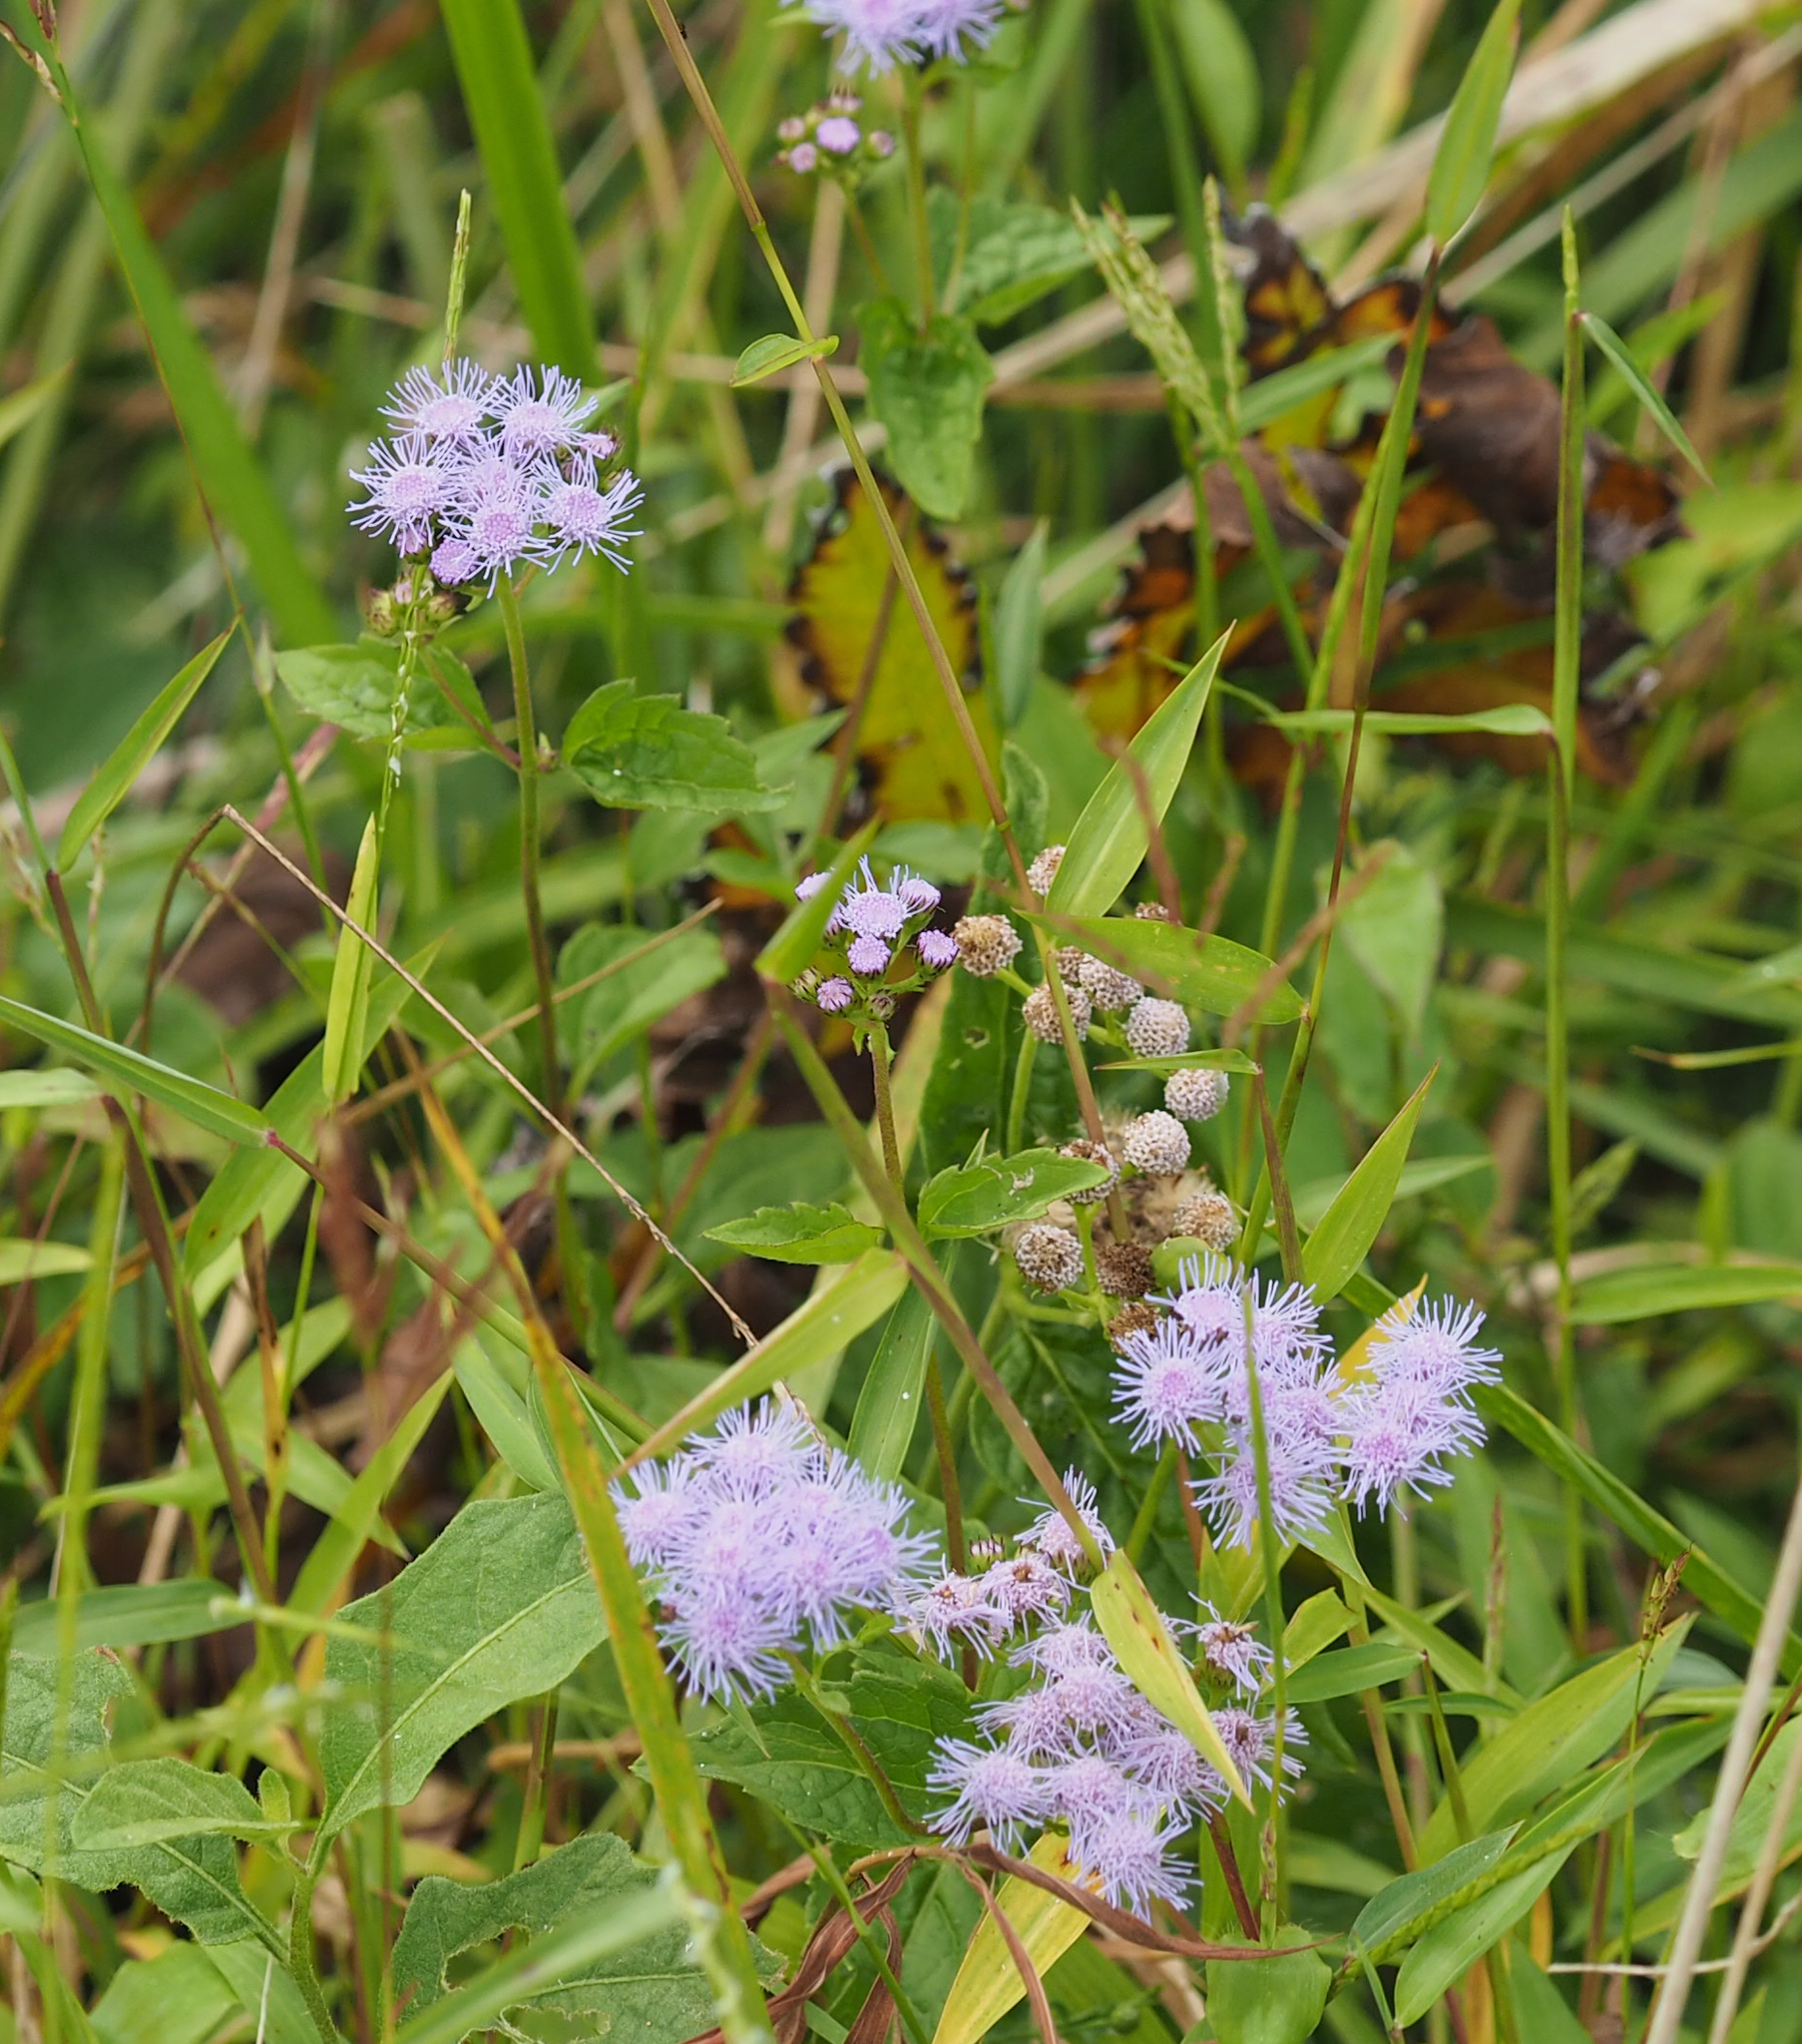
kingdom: Plantae
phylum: Tracheophyta
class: Magnoliopsida
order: Asterales
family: Asteraceae
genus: Conoclinium
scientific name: Conoclinium coelestinum
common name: Blue mistflower
